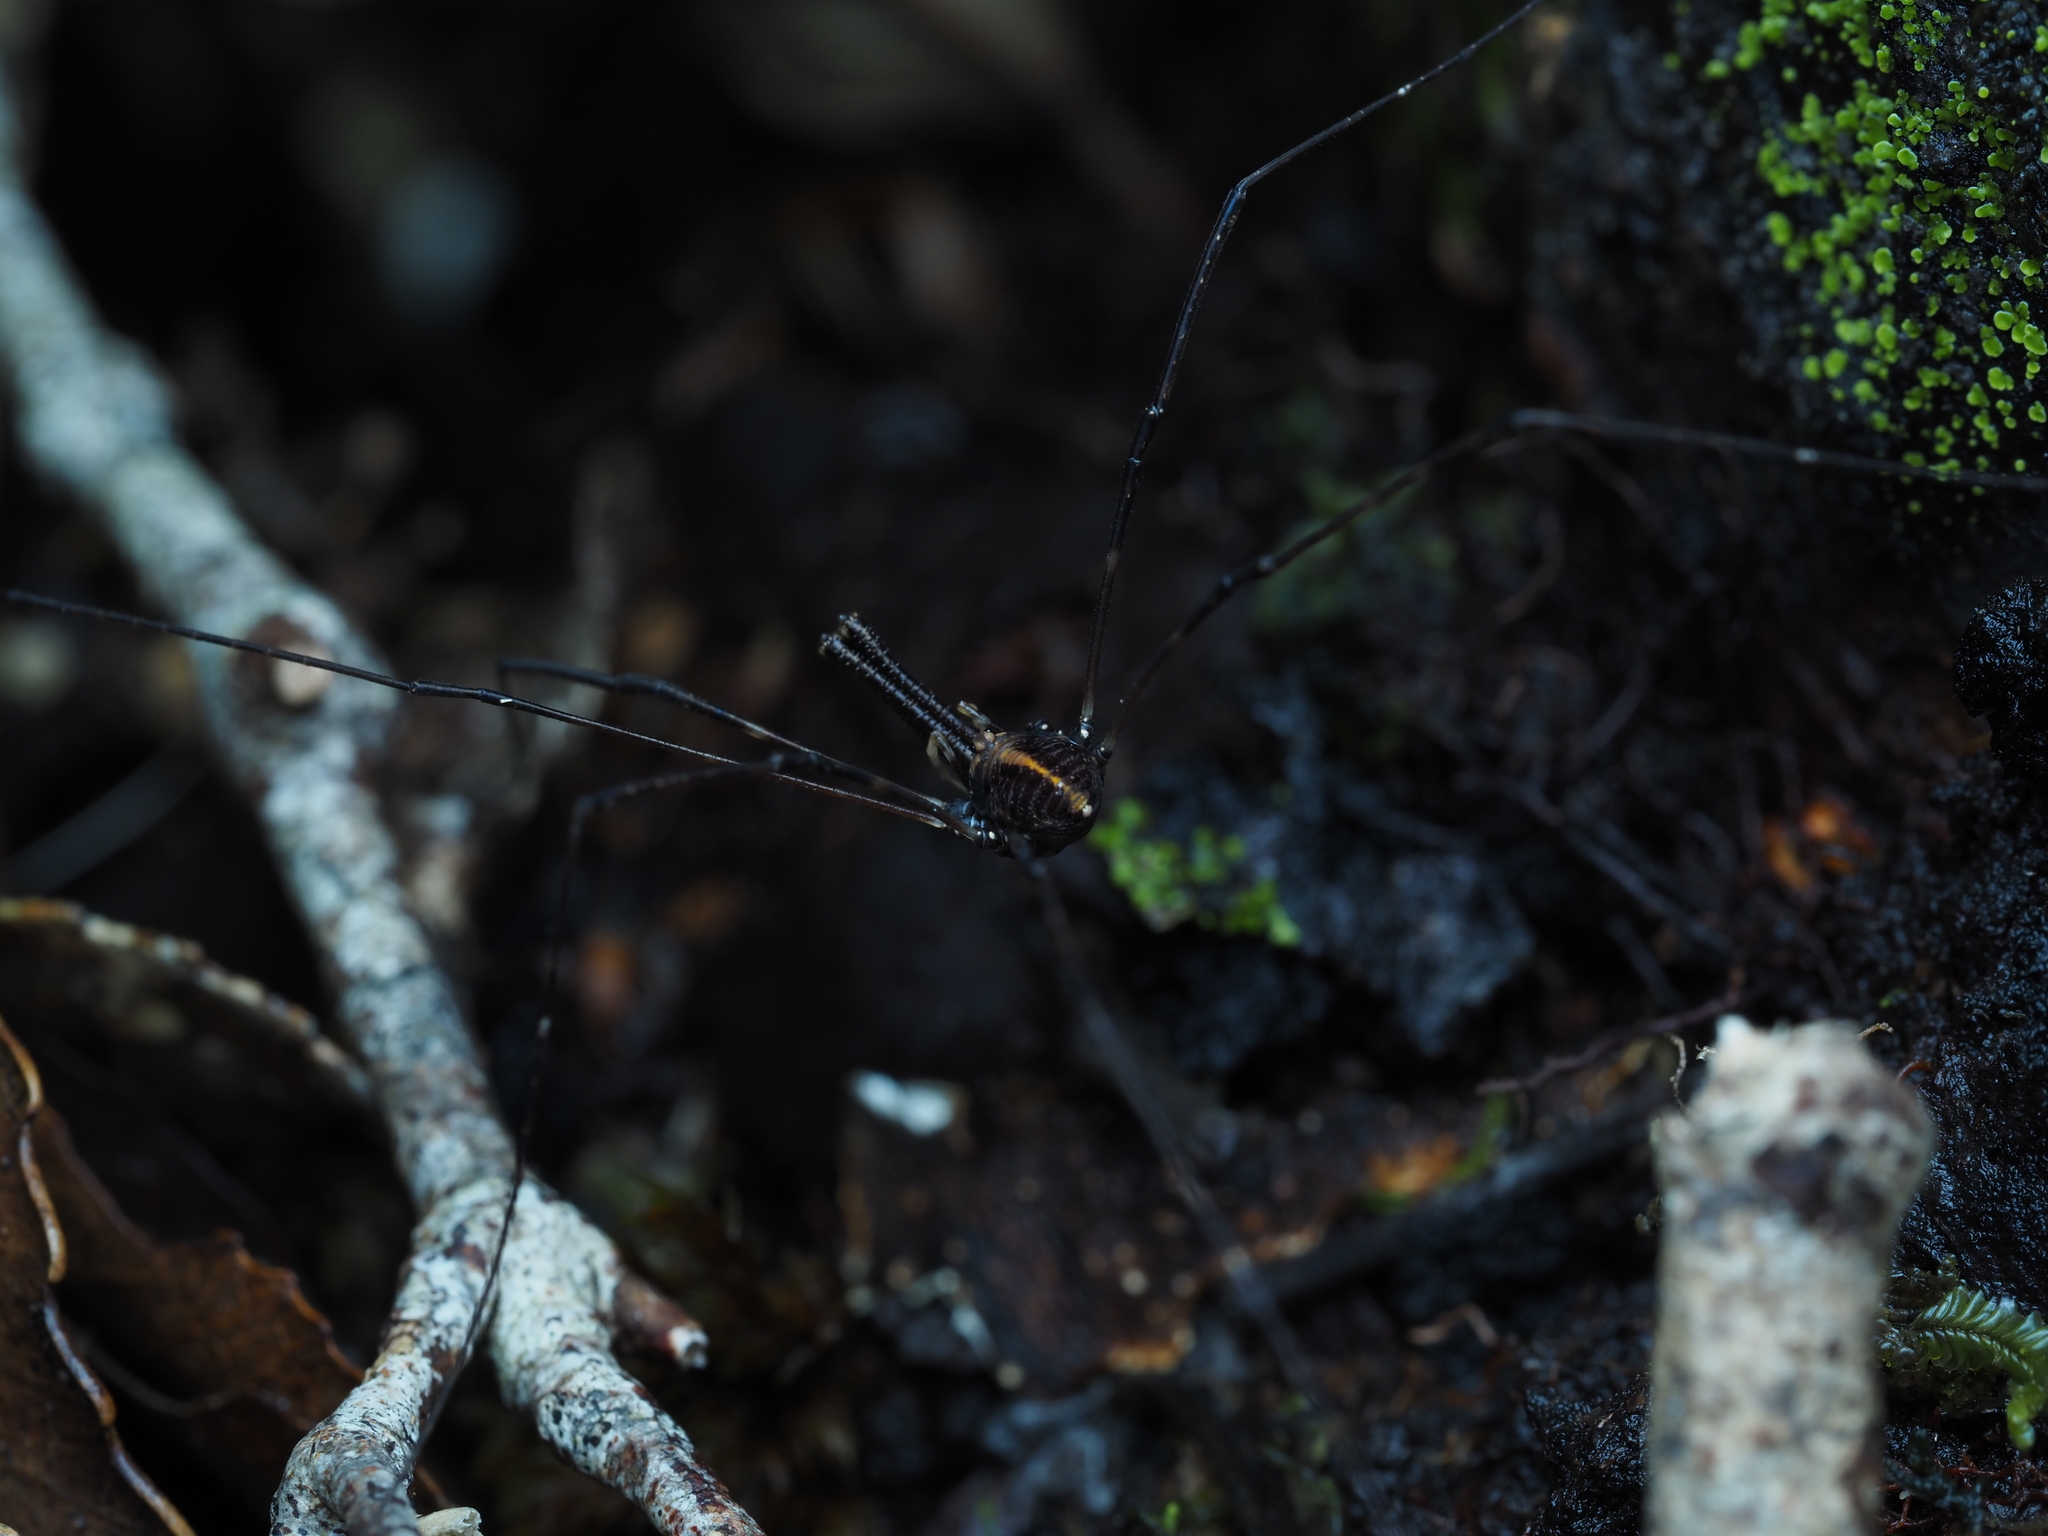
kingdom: Animalia
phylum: Arthropoda
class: Arachnida
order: Opiliones
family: Neopilionidae
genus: Forsteropsalis
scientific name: Forsteropsalis pureora
